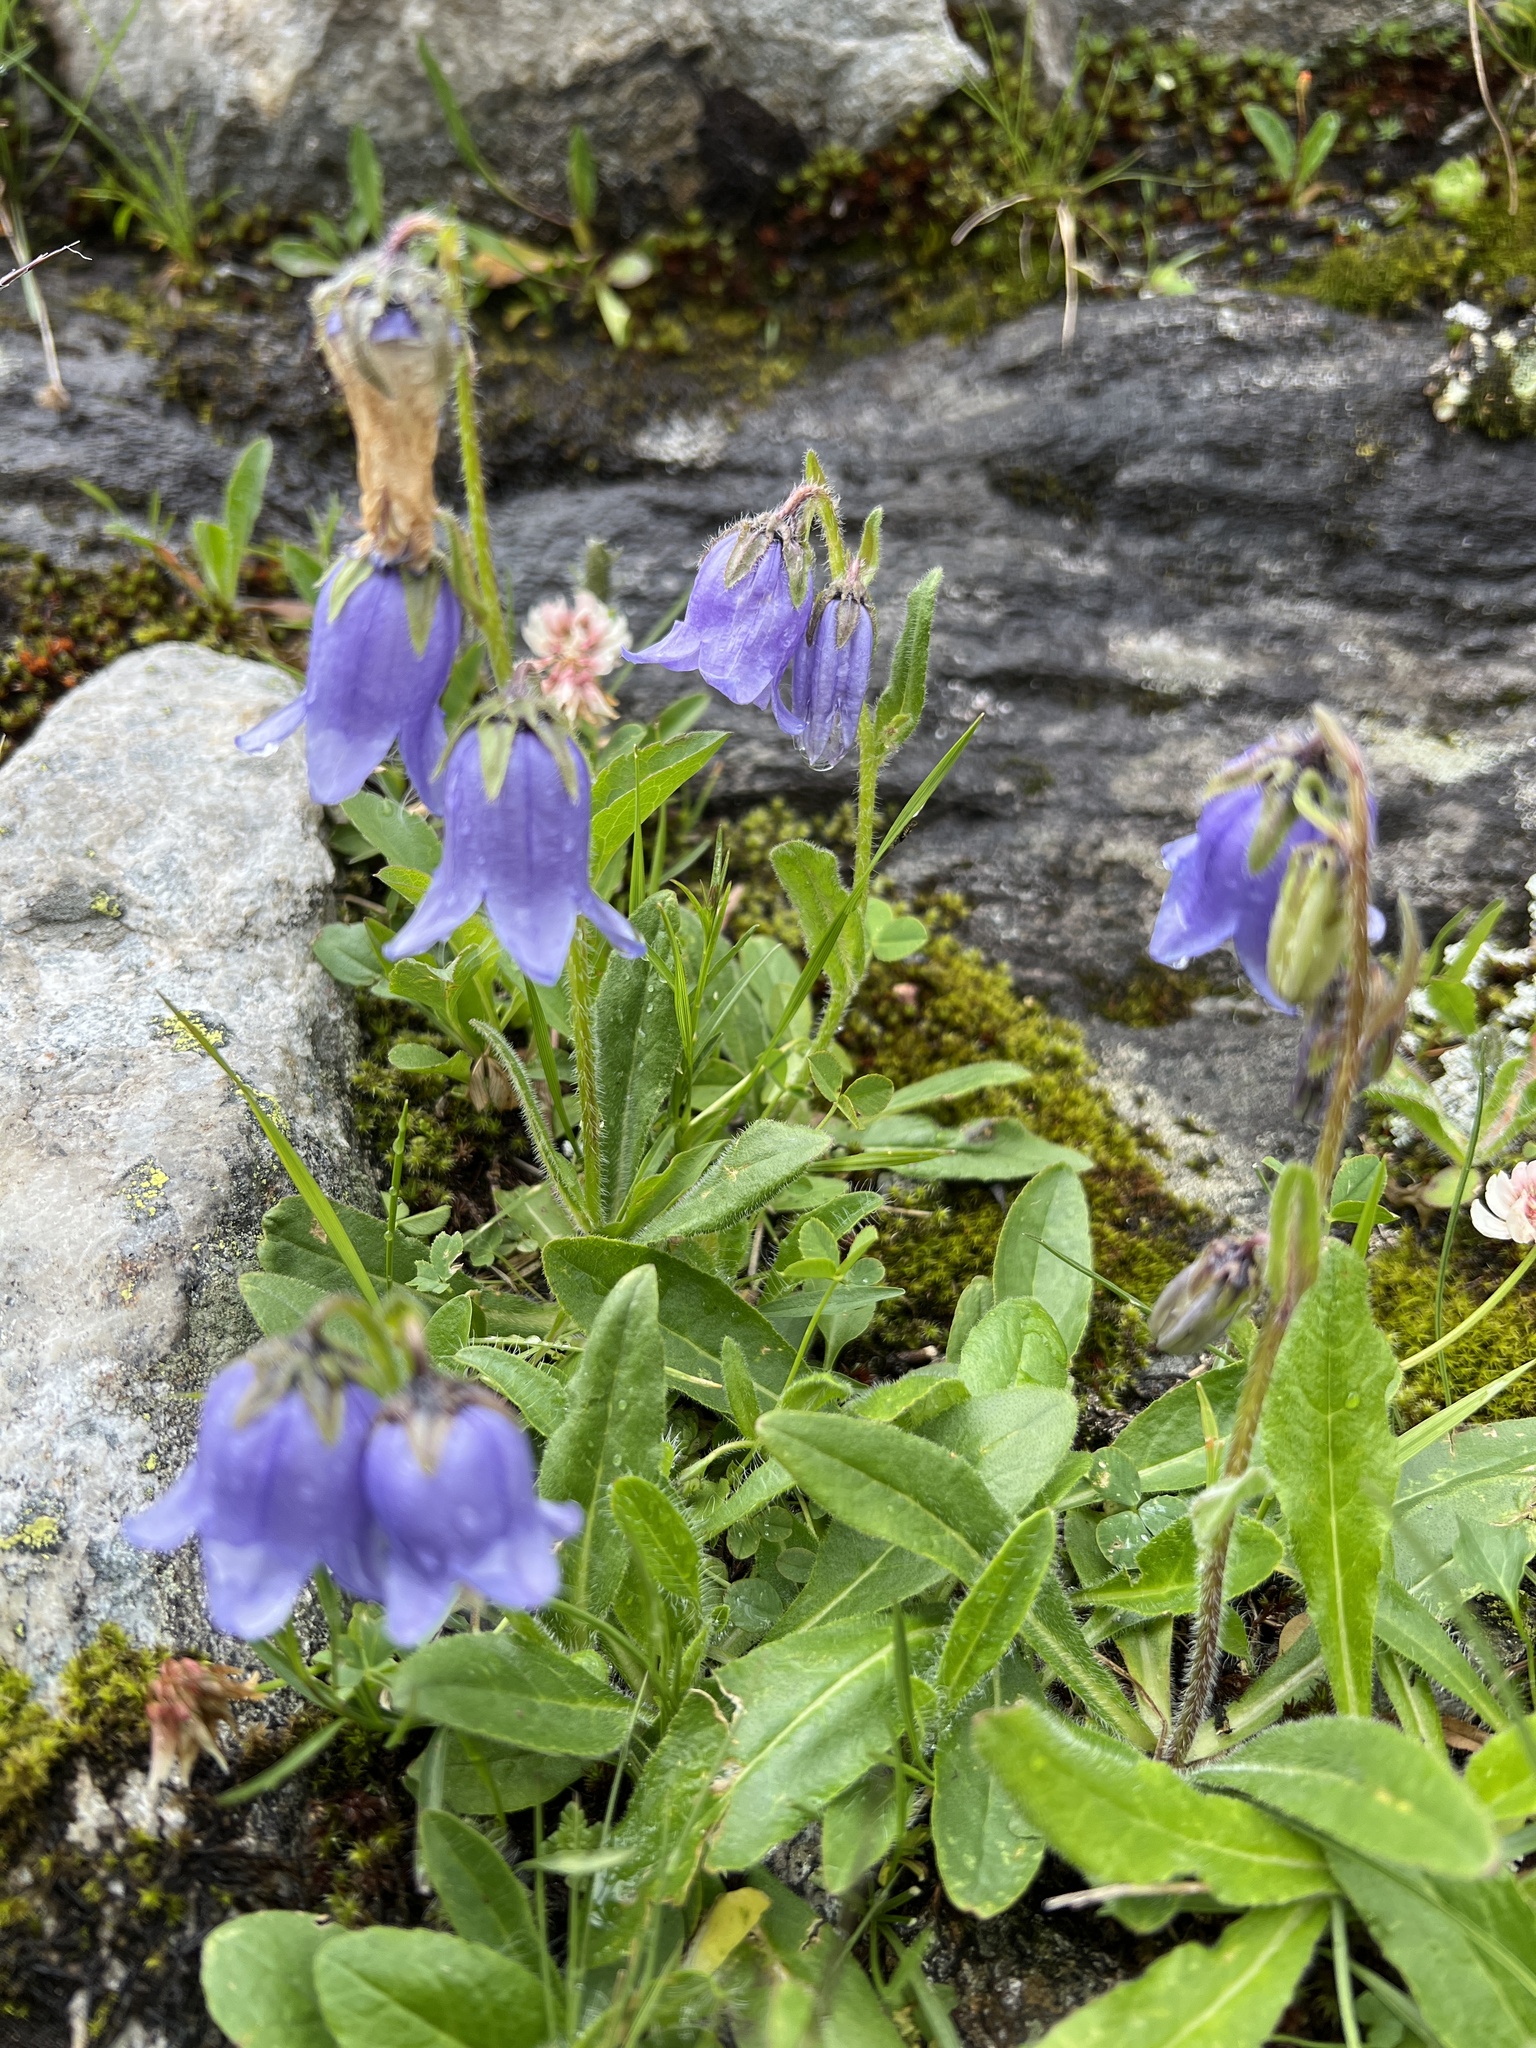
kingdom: Plantae
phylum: Tracheophyta
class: Magnoliopsida
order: Asterales
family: Campanulaceae
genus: Campanula
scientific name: Campanula barbata
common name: Bearded bellflower
